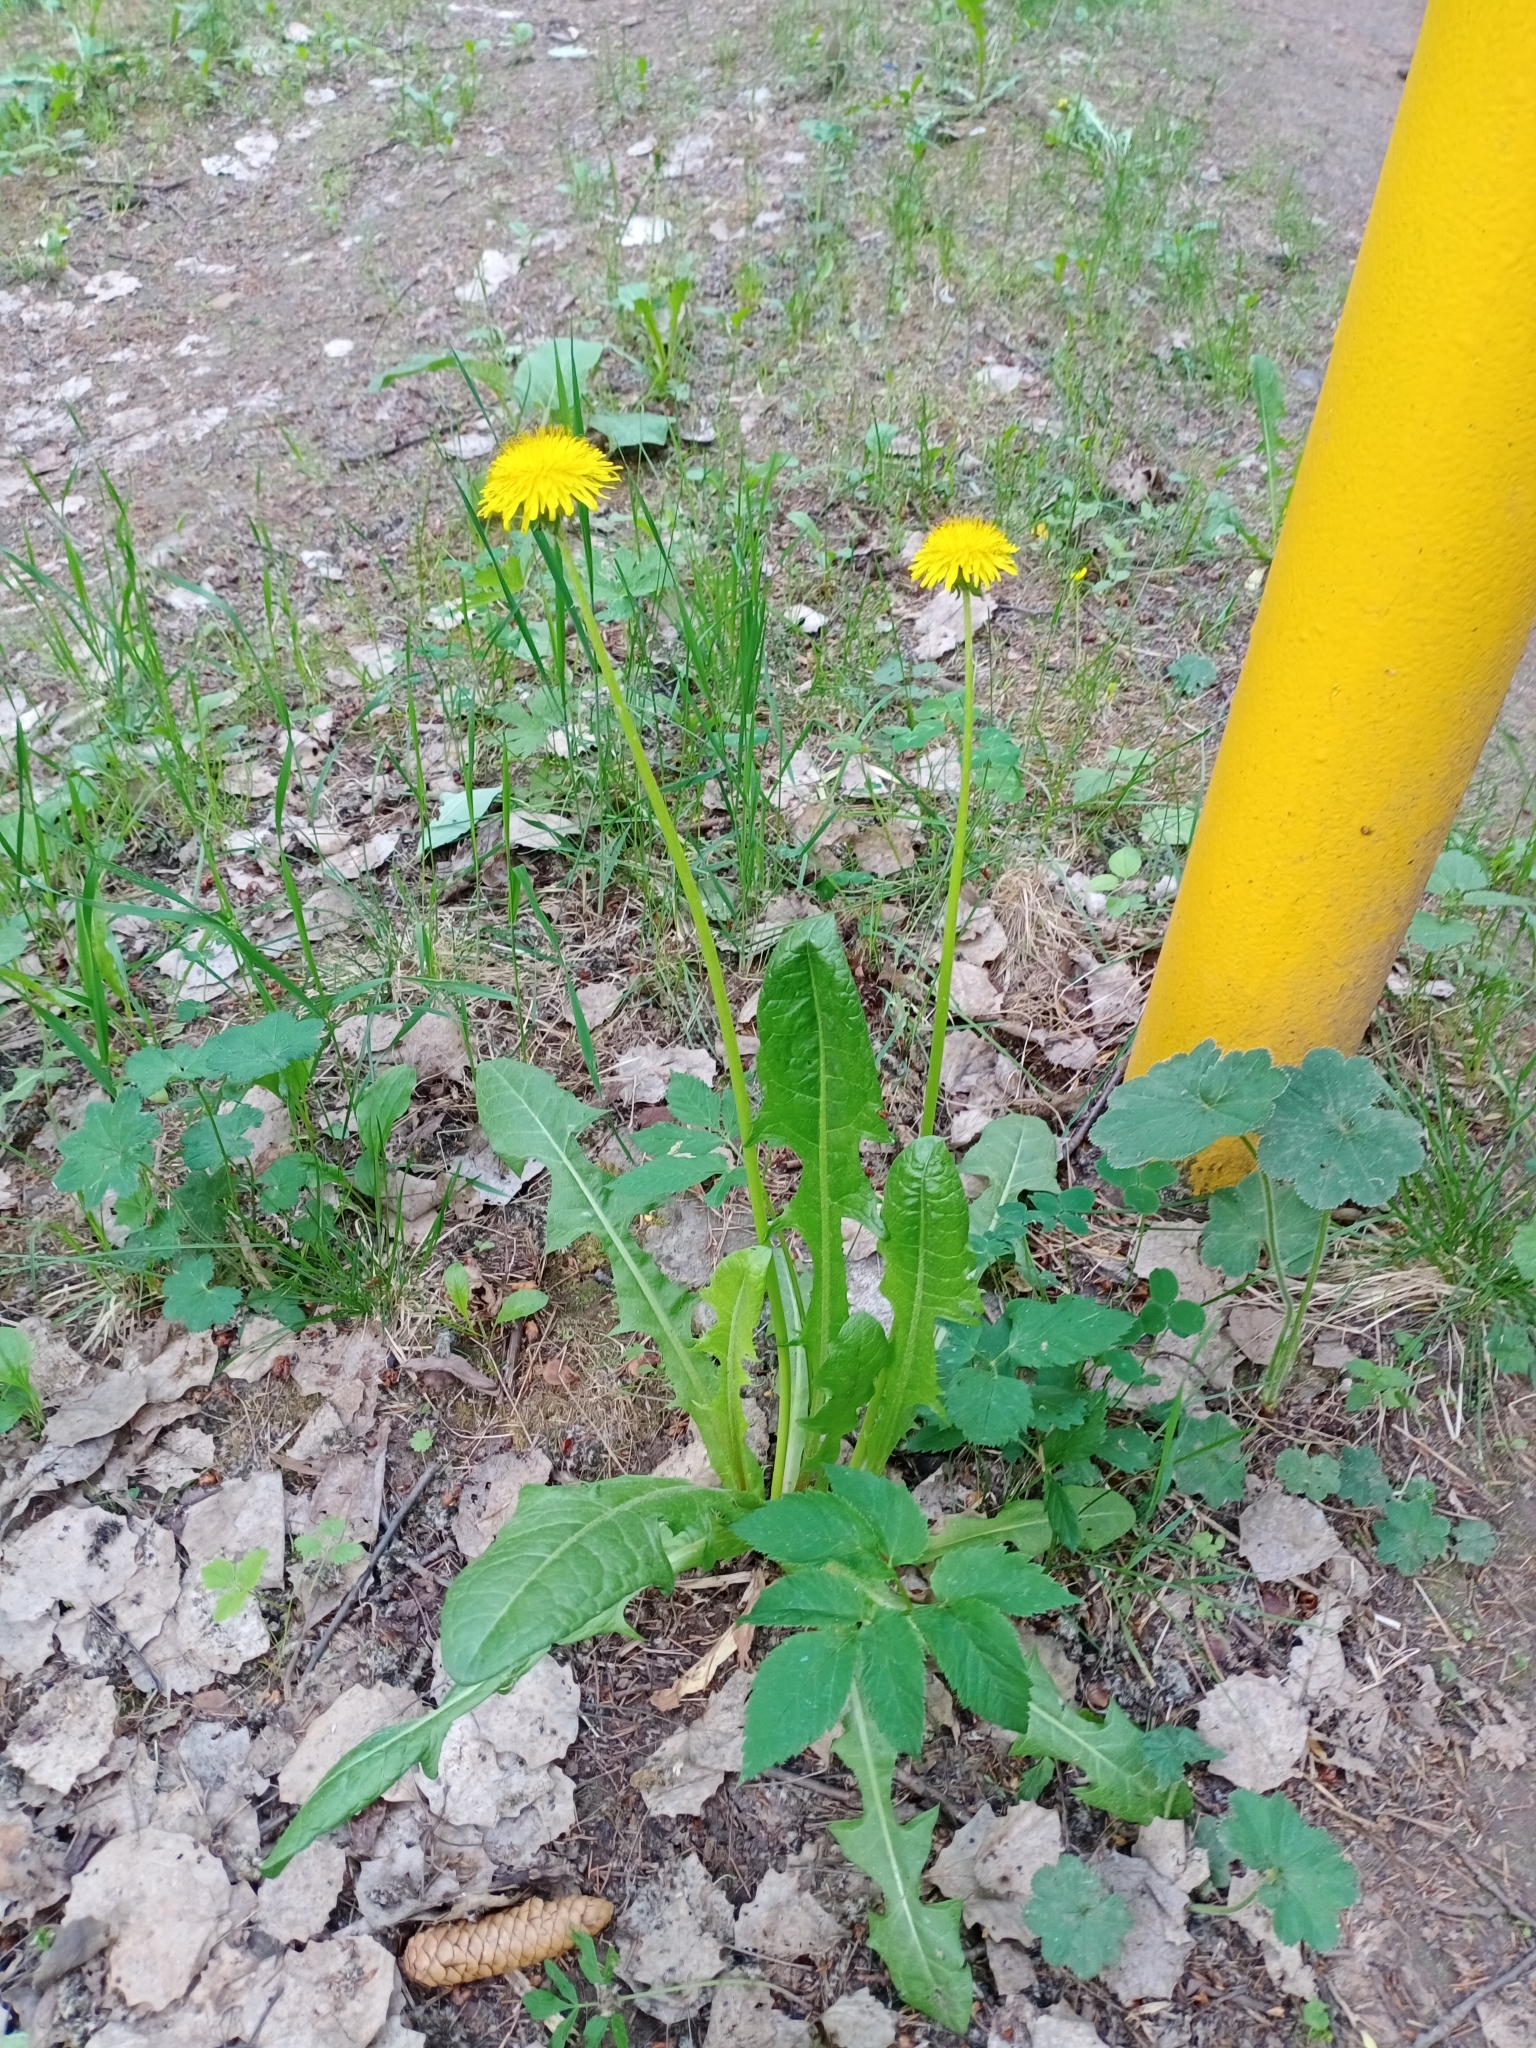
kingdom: Plantae
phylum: Tracheophyta
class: Magnoliopsida
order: Asterales
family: Asteraceae
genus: Taraxacum
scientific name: Taraxacum officinale
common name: Common dandelion
